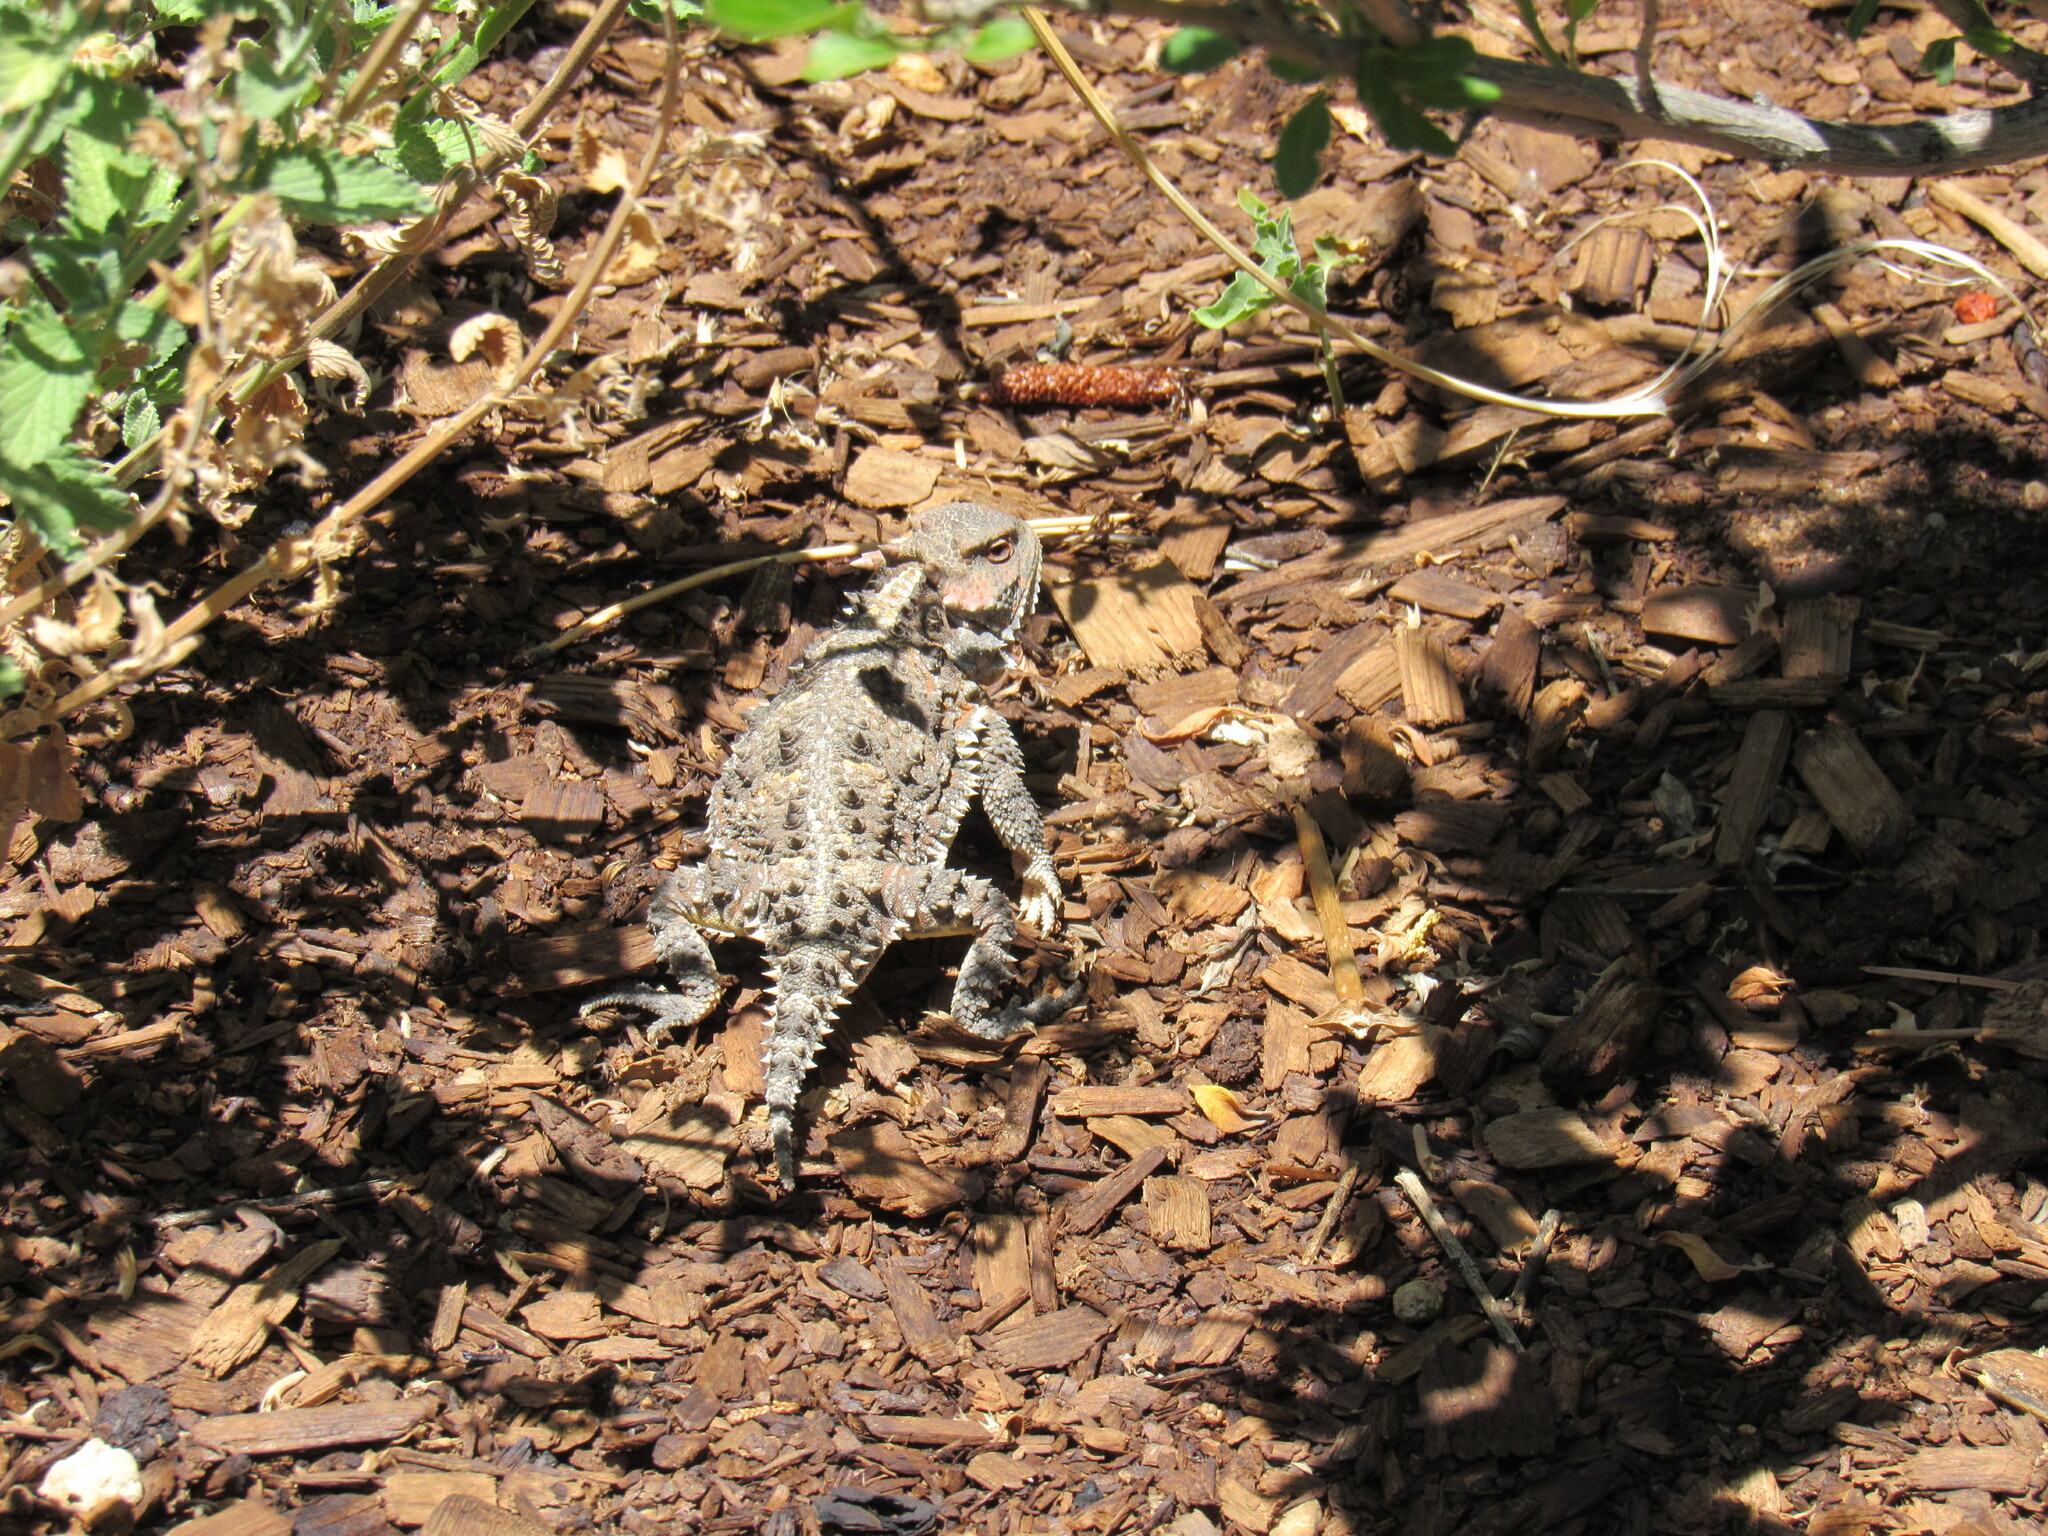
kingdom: Animalia
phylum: Chordata
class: Squamata
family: Phrynosomatidae
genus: Phrynosoma
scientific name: Phrynosoma hernandesi
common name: Greater short-horned lizard
